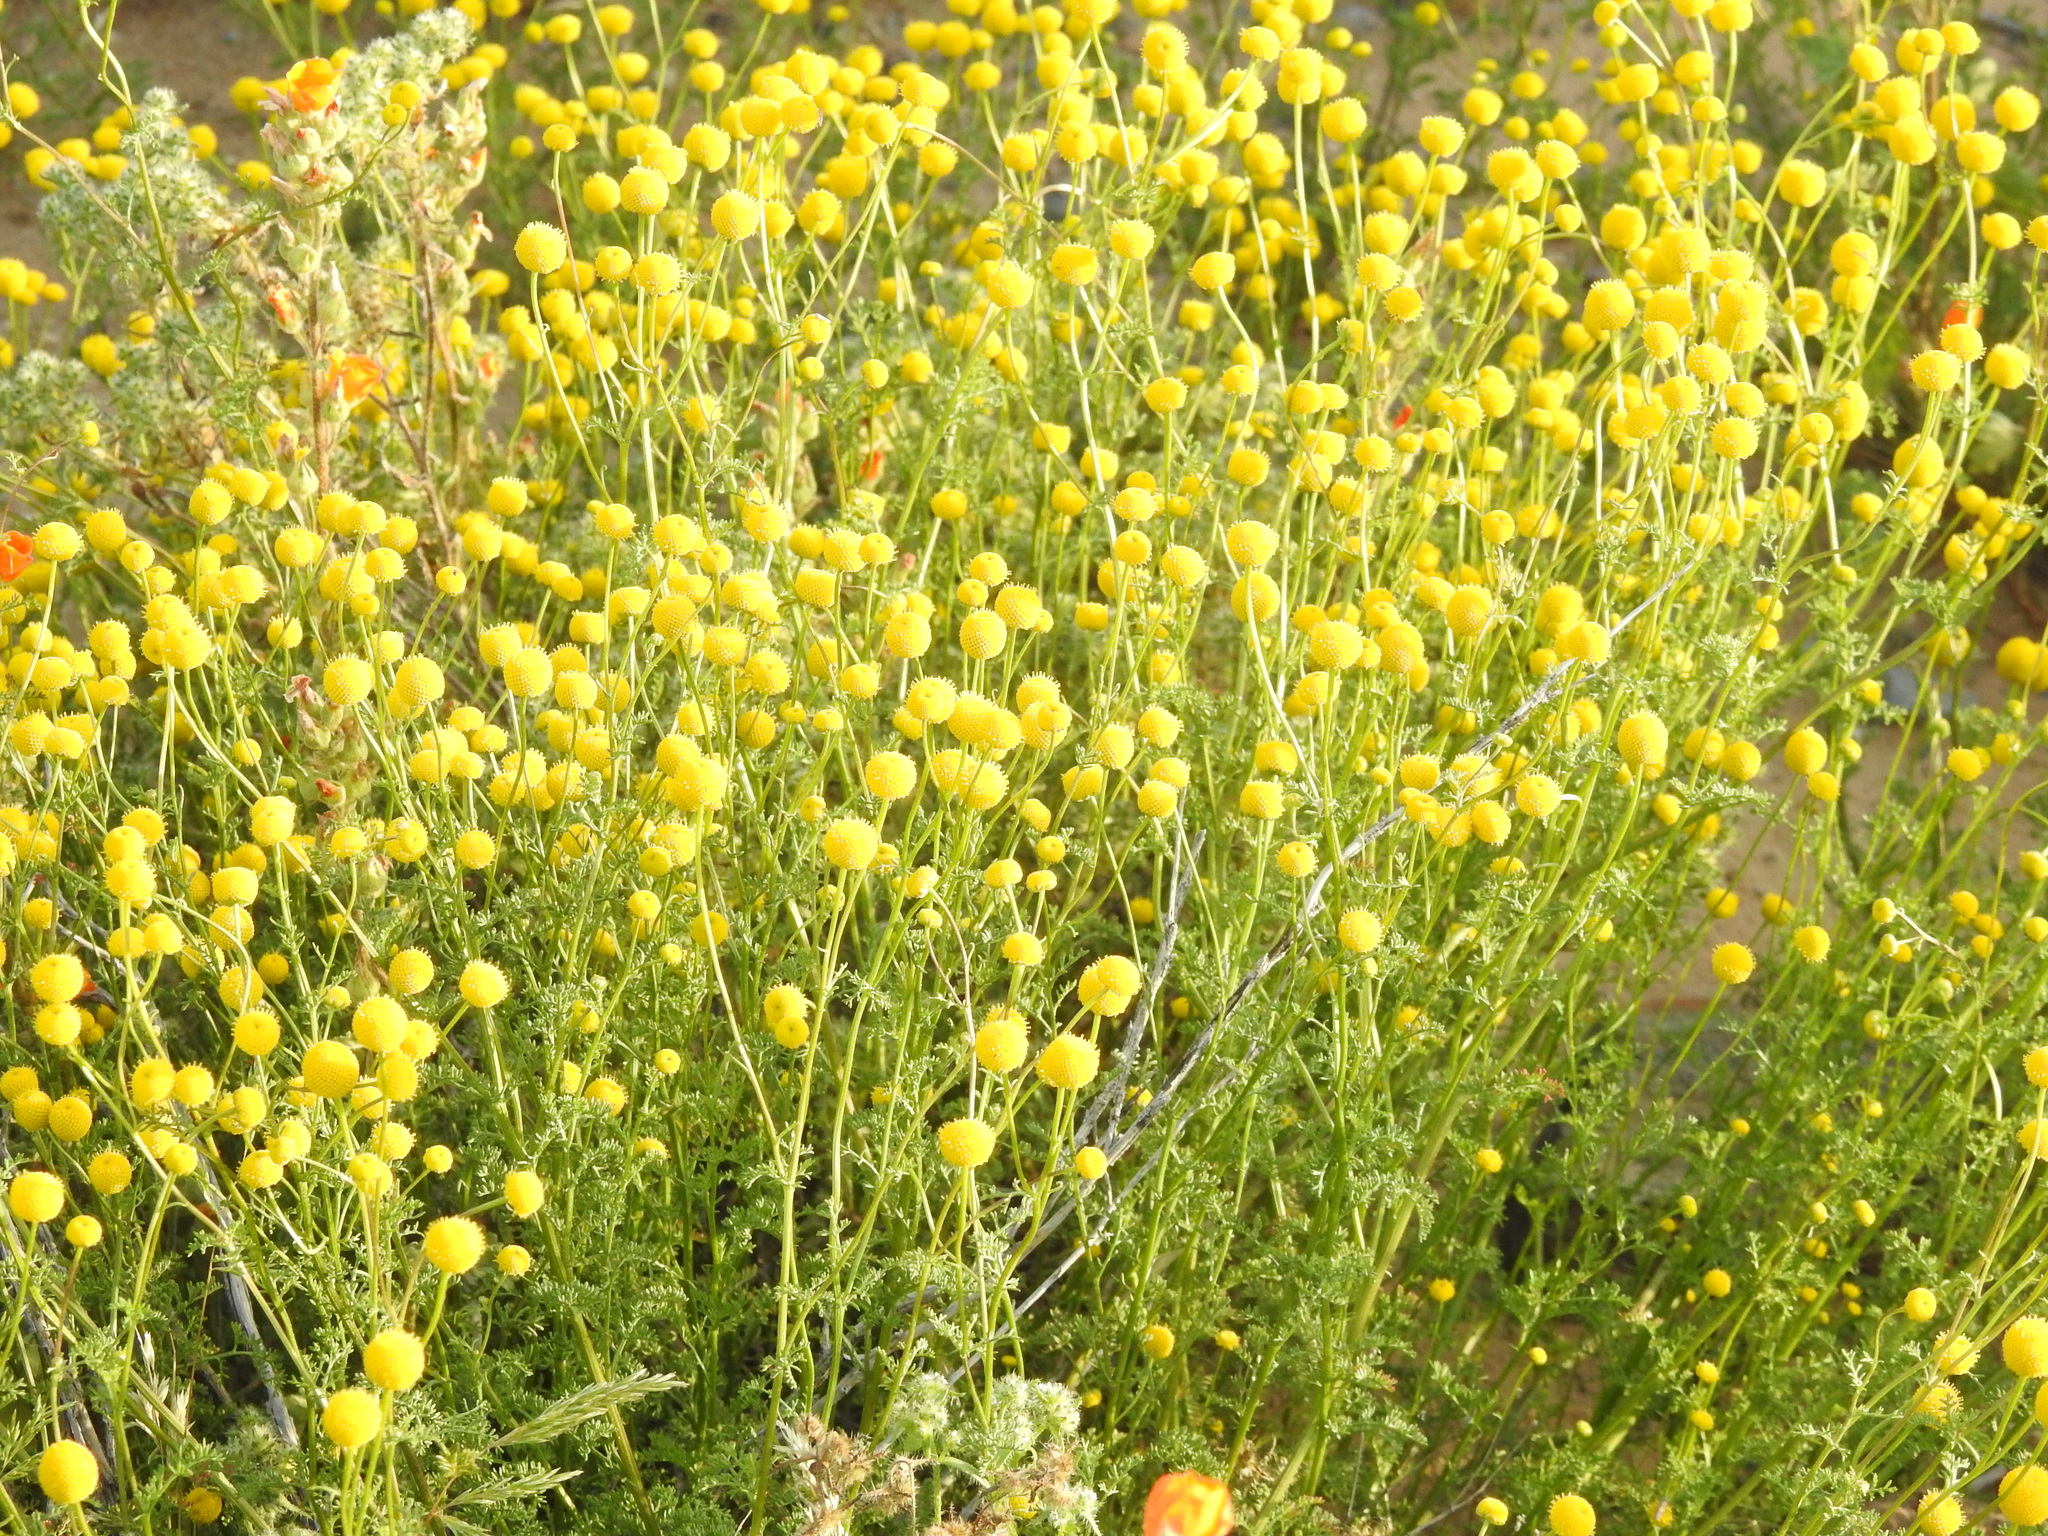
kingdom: Plantae
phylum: Tracheophyta
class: Magnoliopsida
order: Asterales
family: Asteraceae
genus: Oncosiphon
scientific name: Oncosiphon pilulifer
